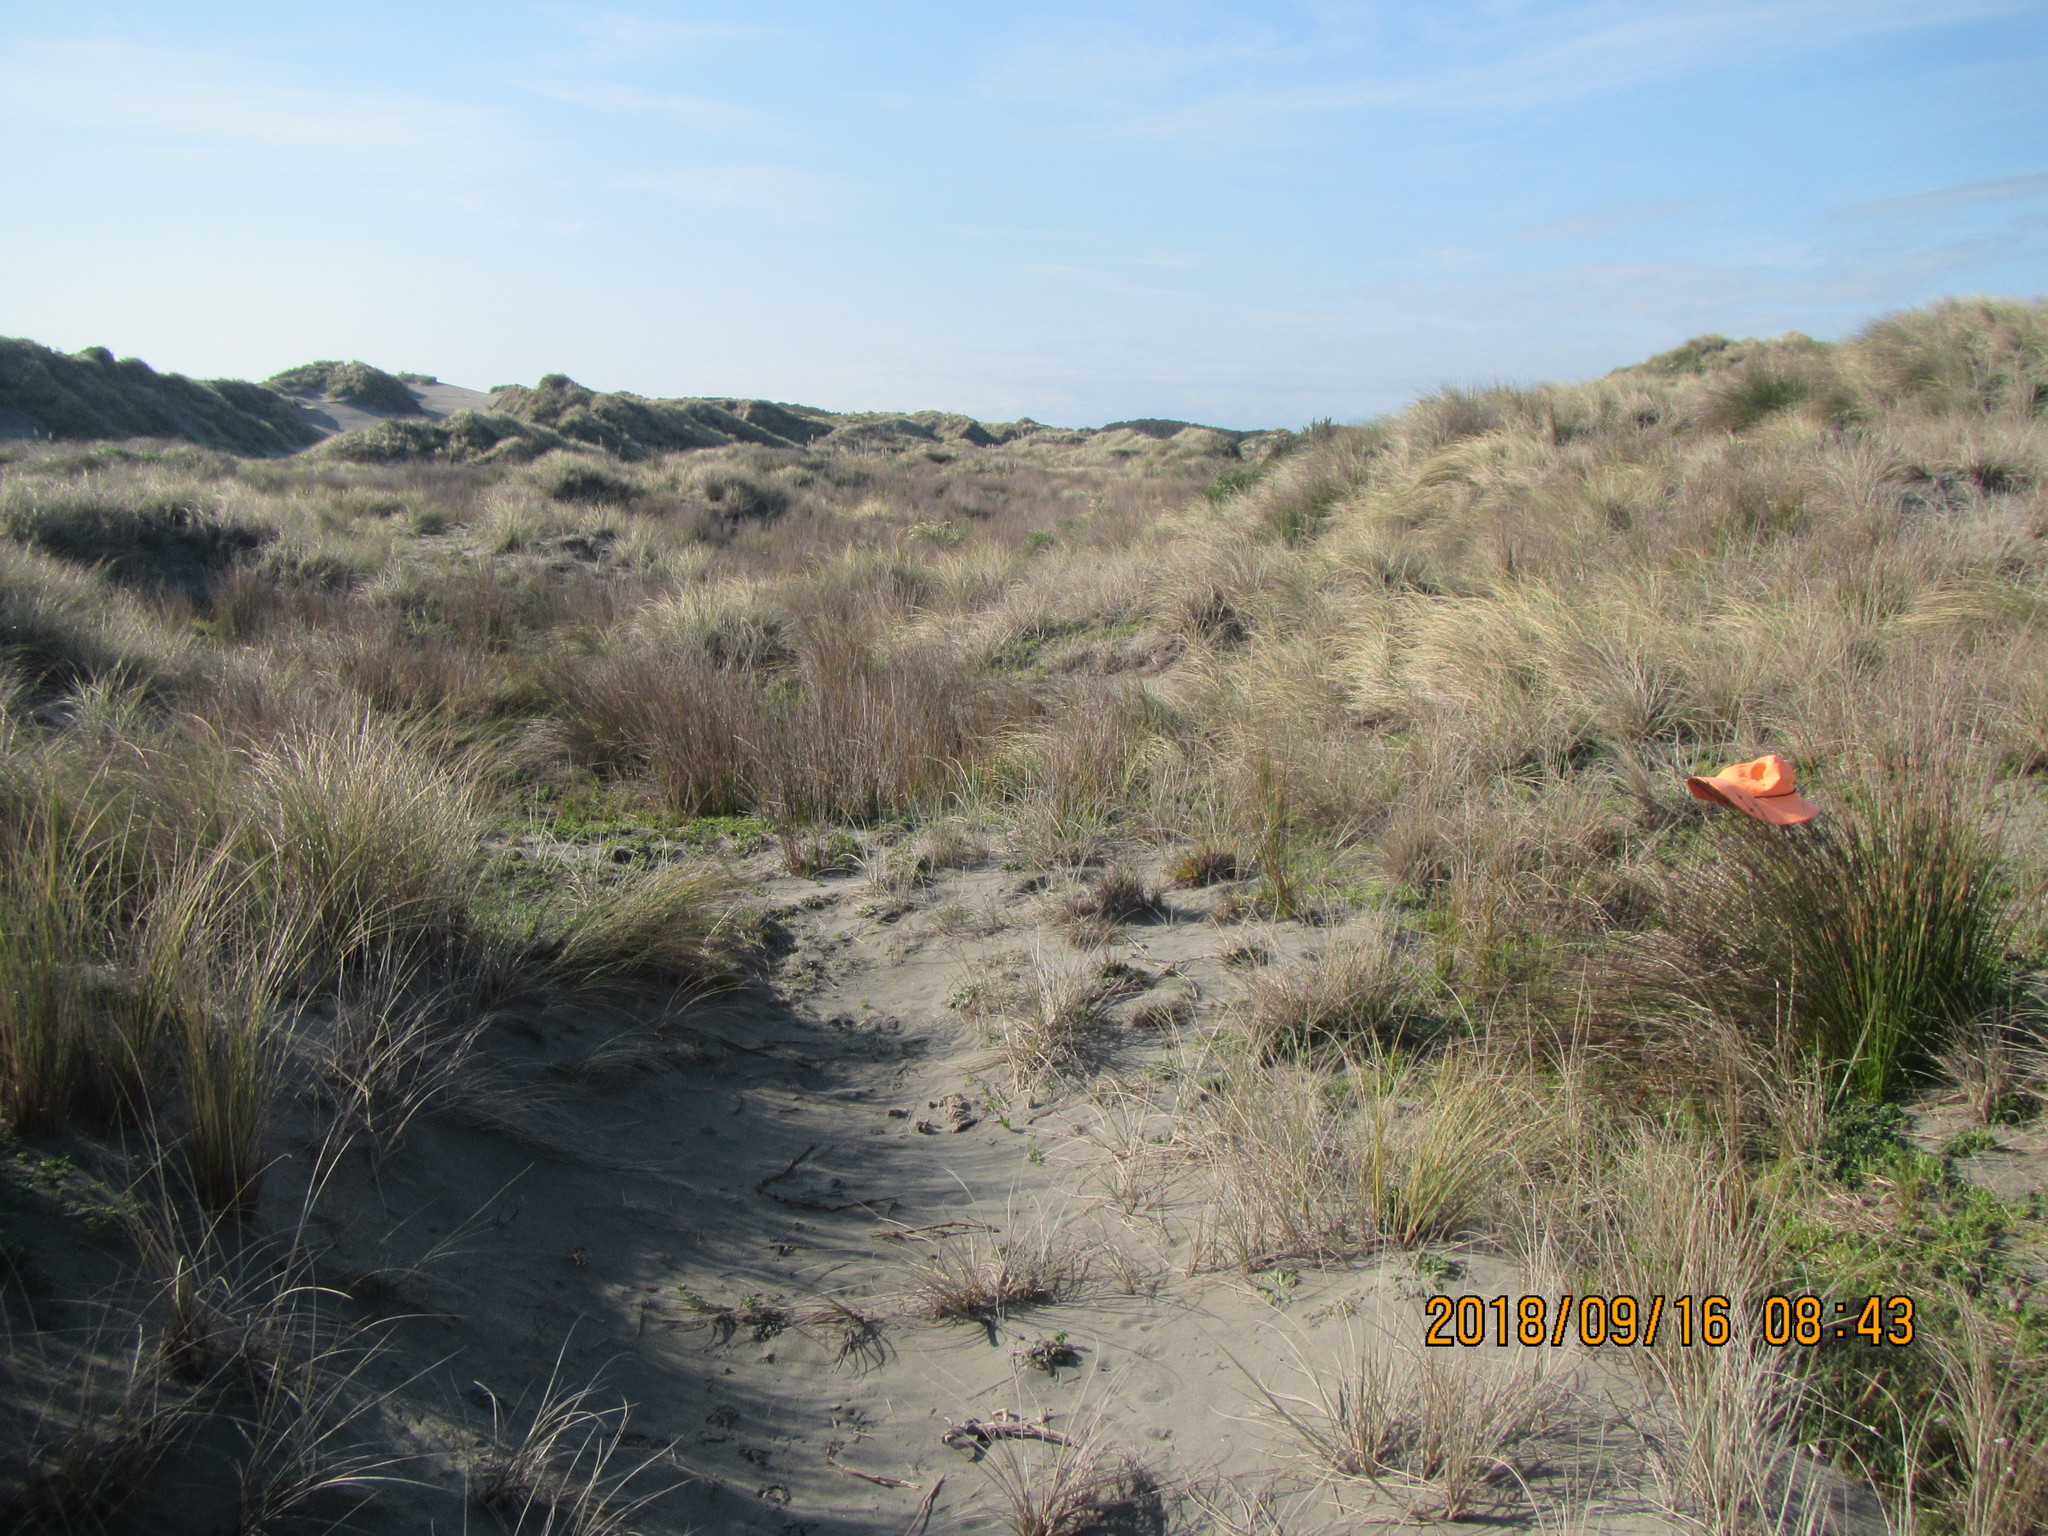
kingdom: Plantae
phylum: Tracheophyta
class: Liliopsida
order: Poales
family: Cyperaceae
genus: Ficinia
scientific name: Ficinia nodosa
